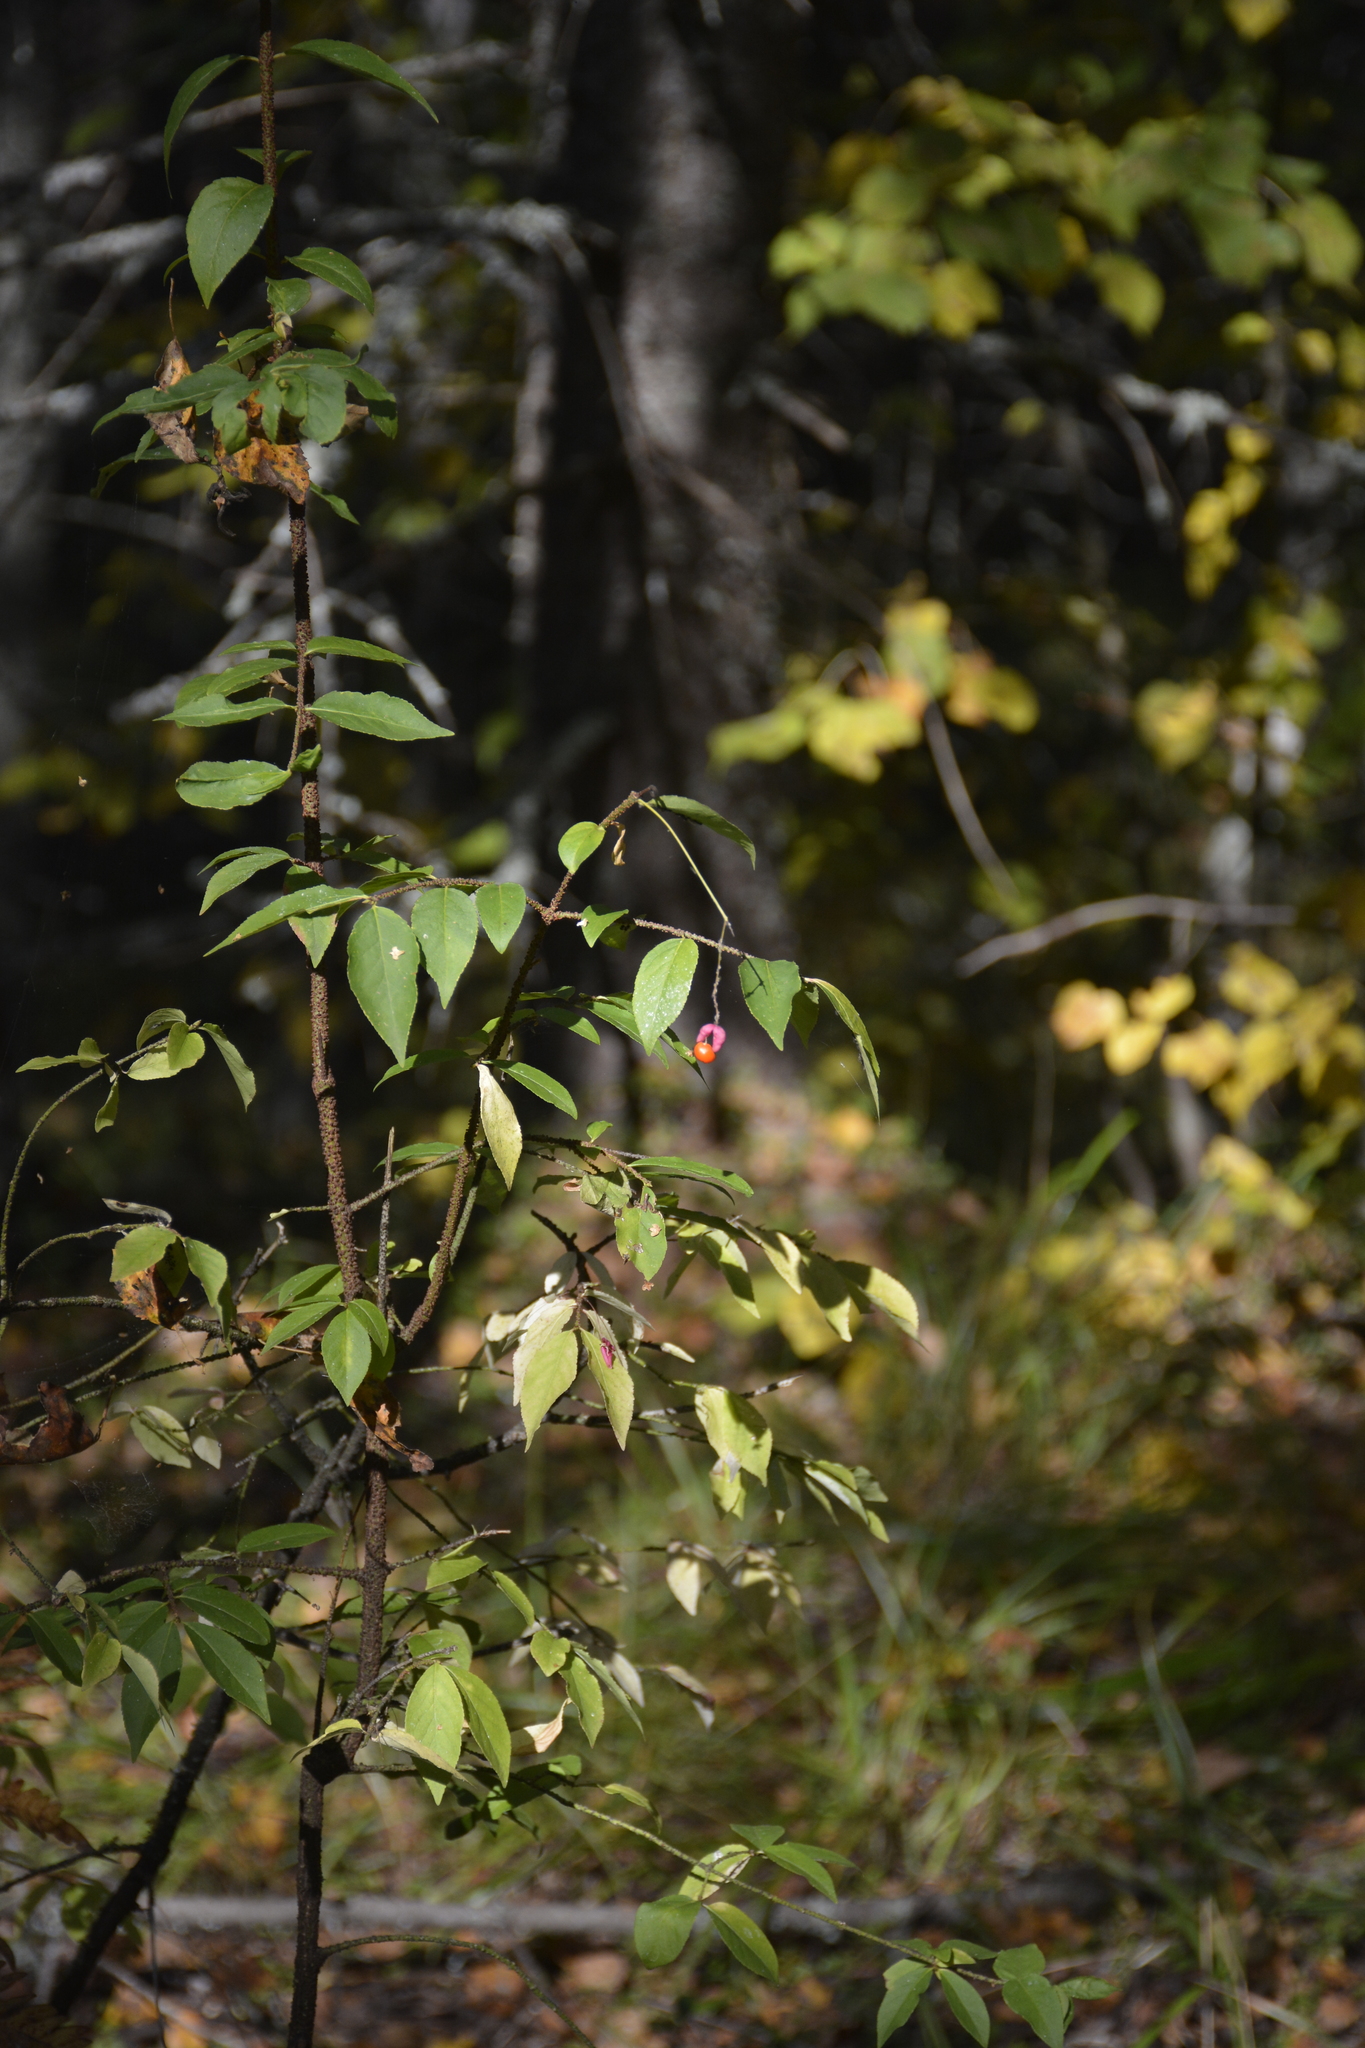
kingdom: Plantae
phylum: Tracheophyta
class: Magnoliopsida
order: Celastrales
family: Celastraceae
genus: Euonymus
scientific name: Euonymus verrucosus
